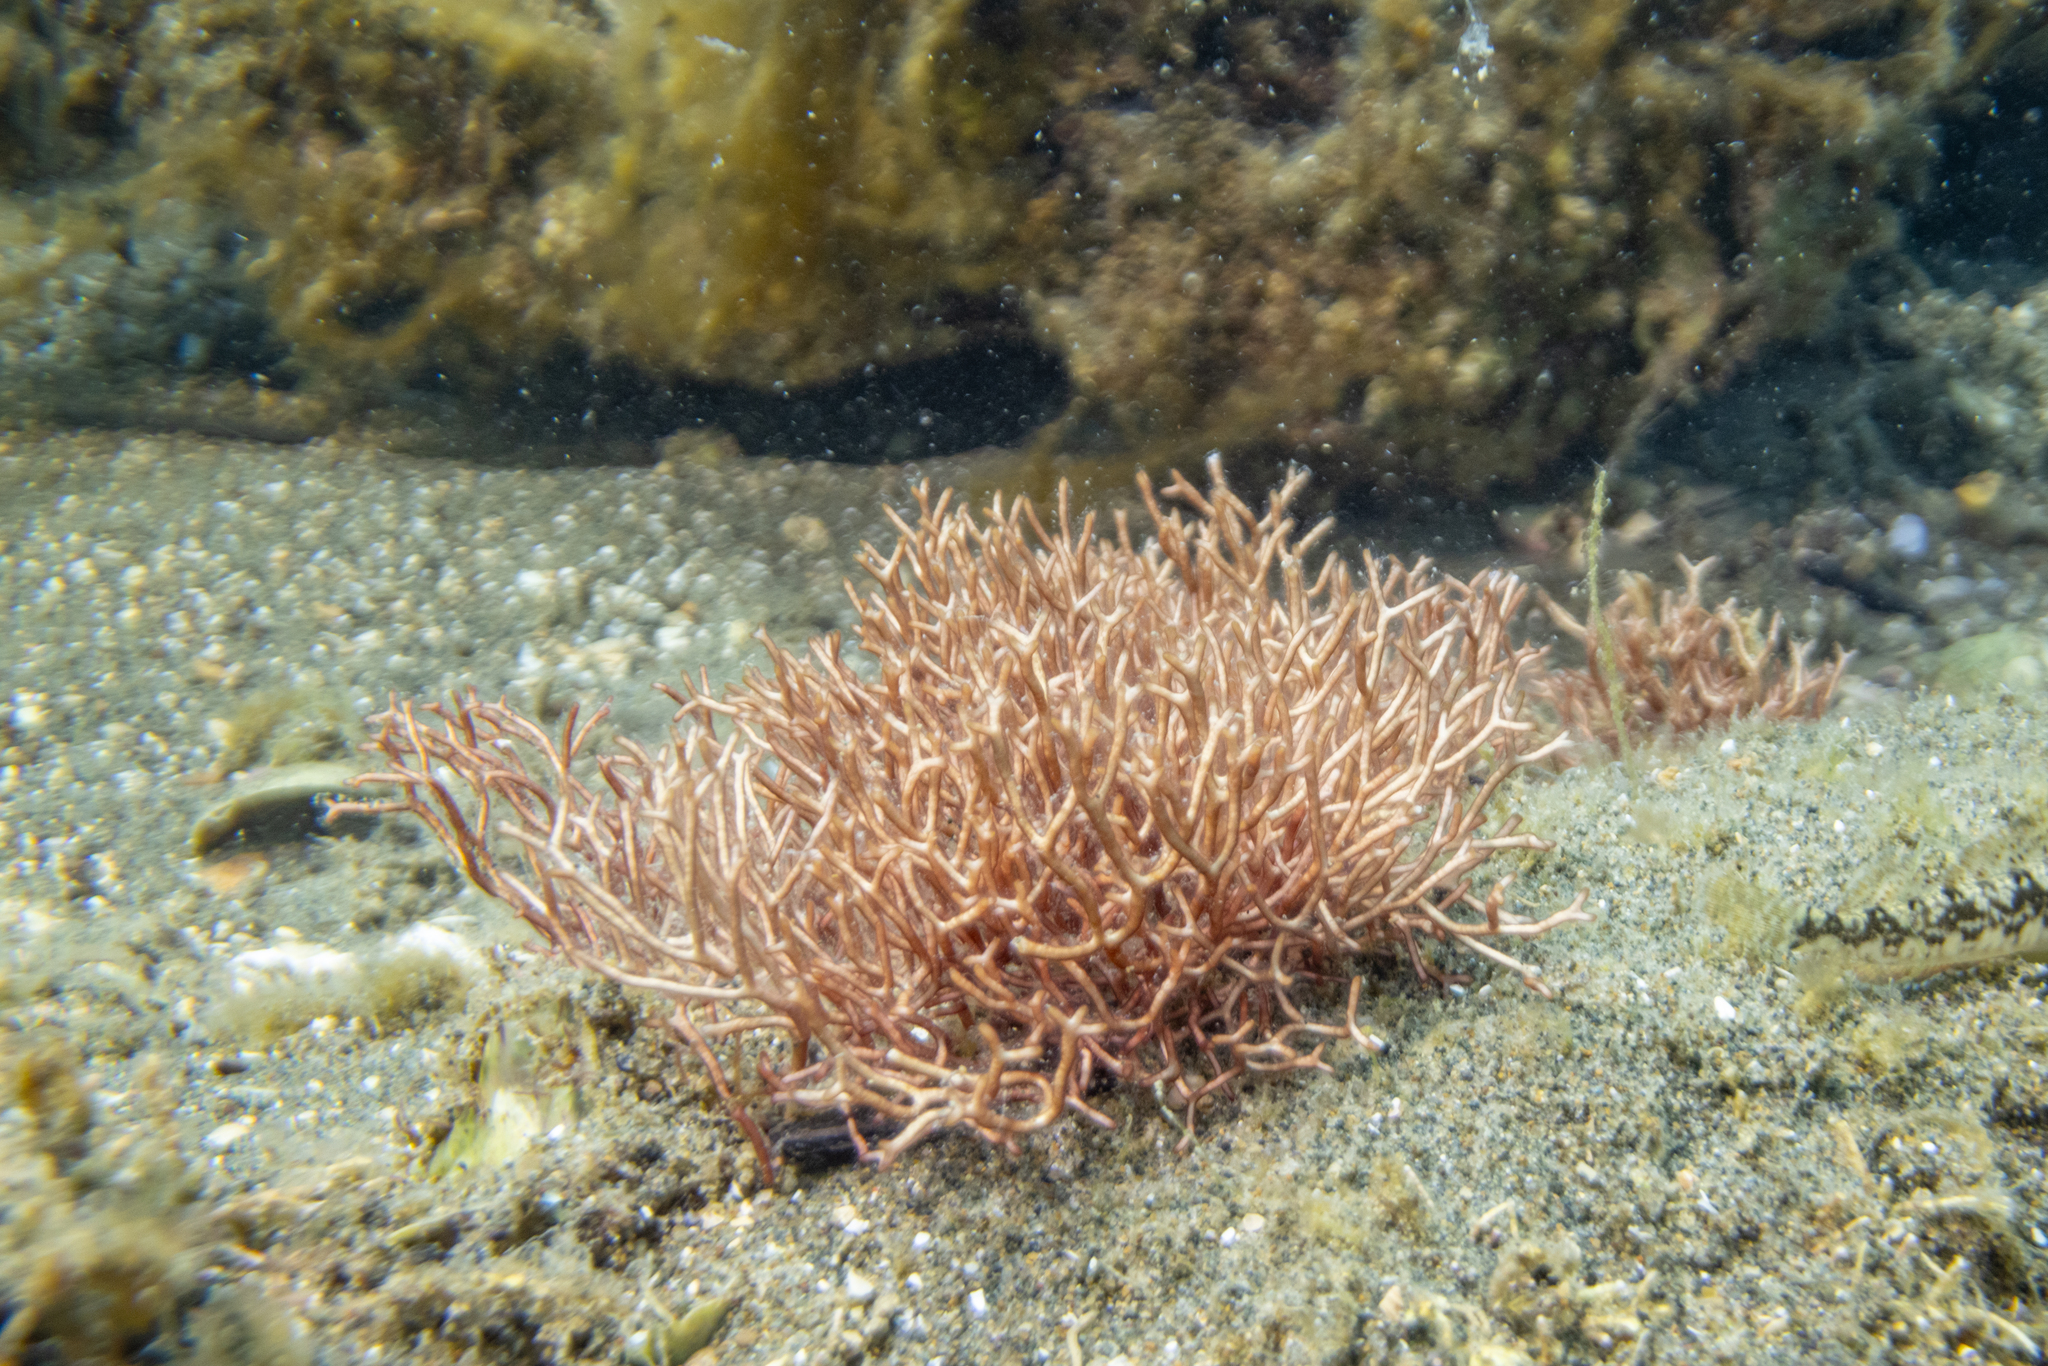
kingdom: Plantae
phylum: Rhodophyta
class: Florideophyceae
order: Nemaliales
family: Liagoraceae
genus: Liagora
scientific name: Liagora harveyana
